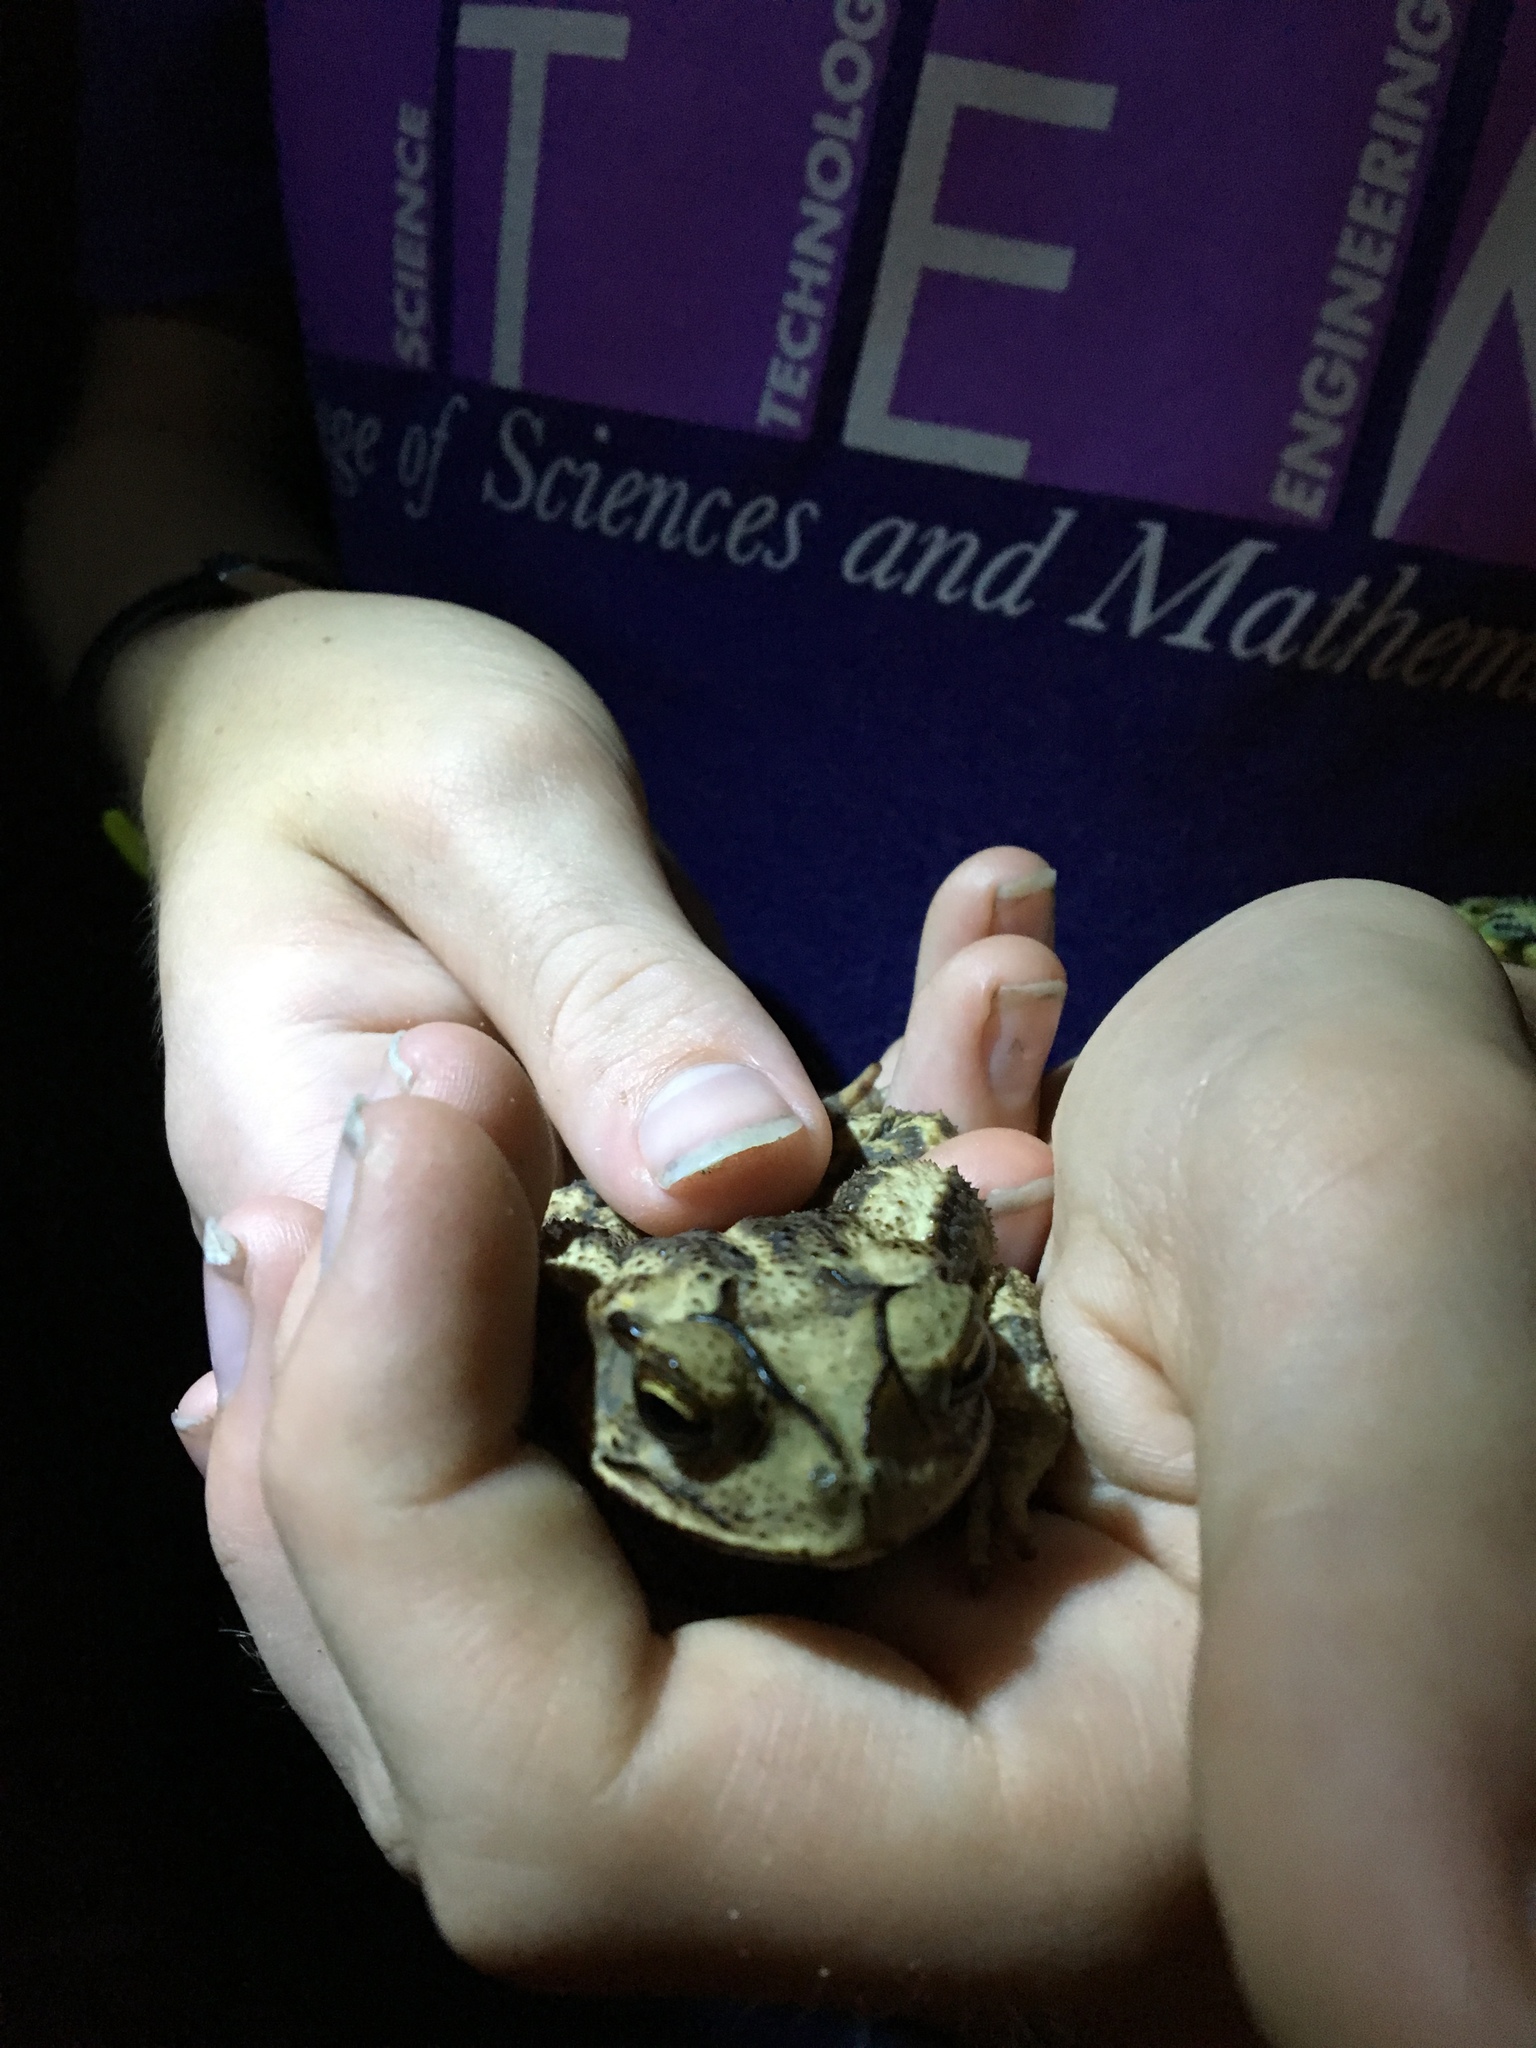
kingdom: Animalia
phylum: Chordata
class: Amphibia
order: Anura
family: Bufonidae
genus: Incilius
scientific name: Incilius nebulifer
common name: Gulf coast toad
